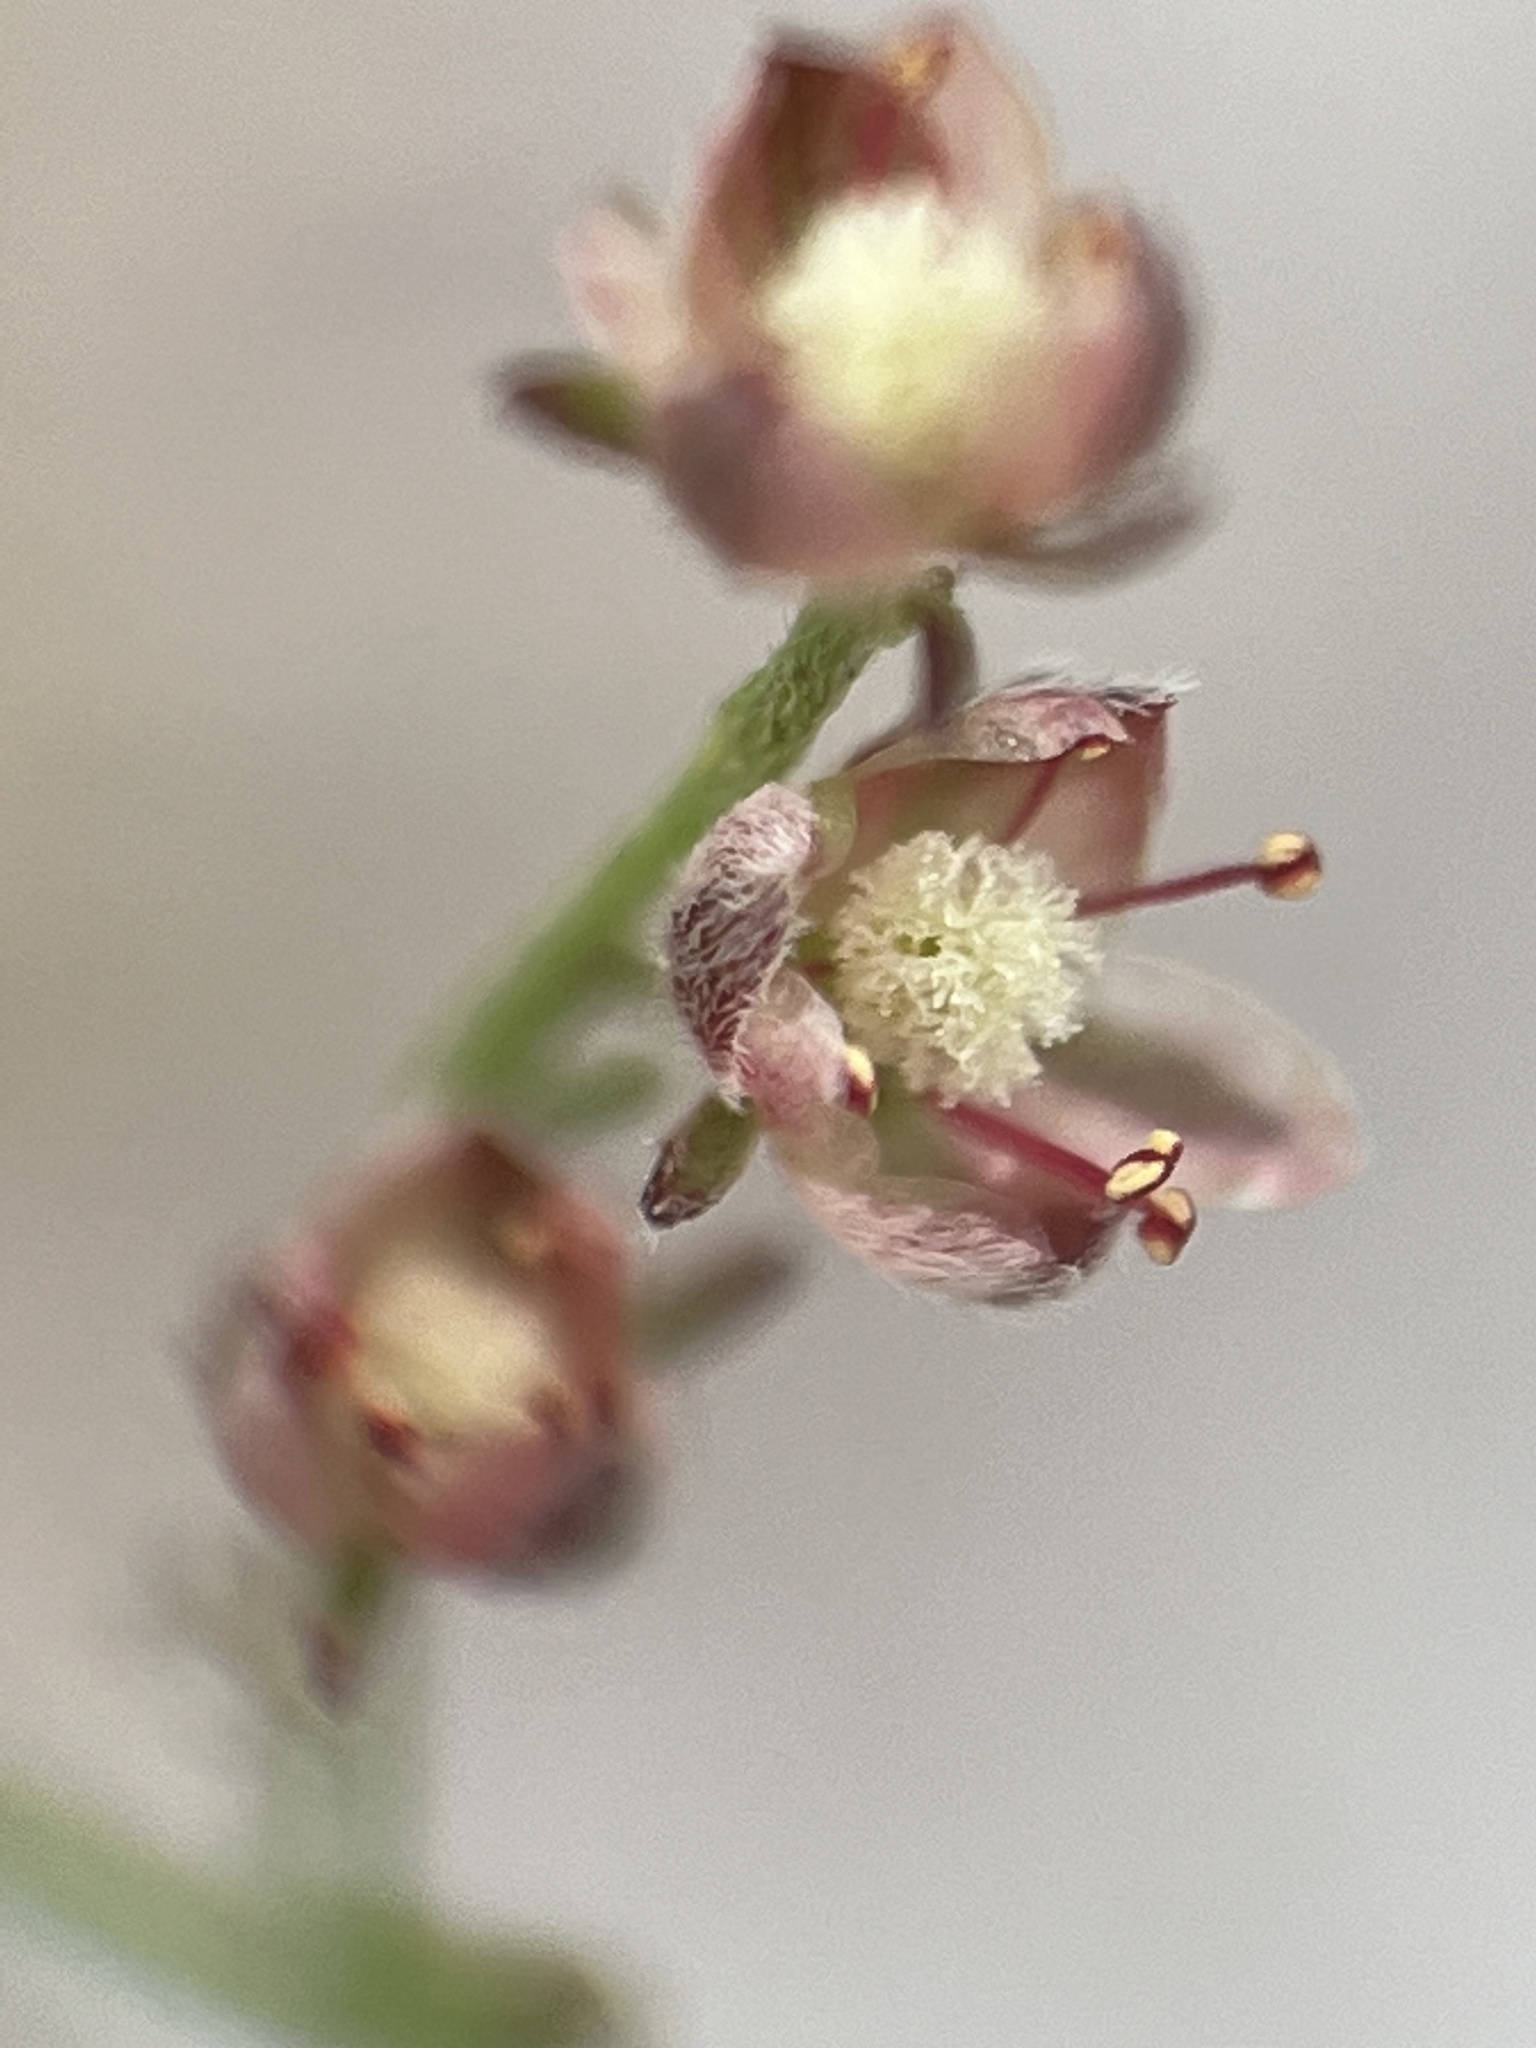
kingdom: Plantae
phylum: Tracheophyta
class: Magnoliopsida
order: Malvales
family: Cistaceae
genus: Lechea
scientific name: Lechea torreyi
